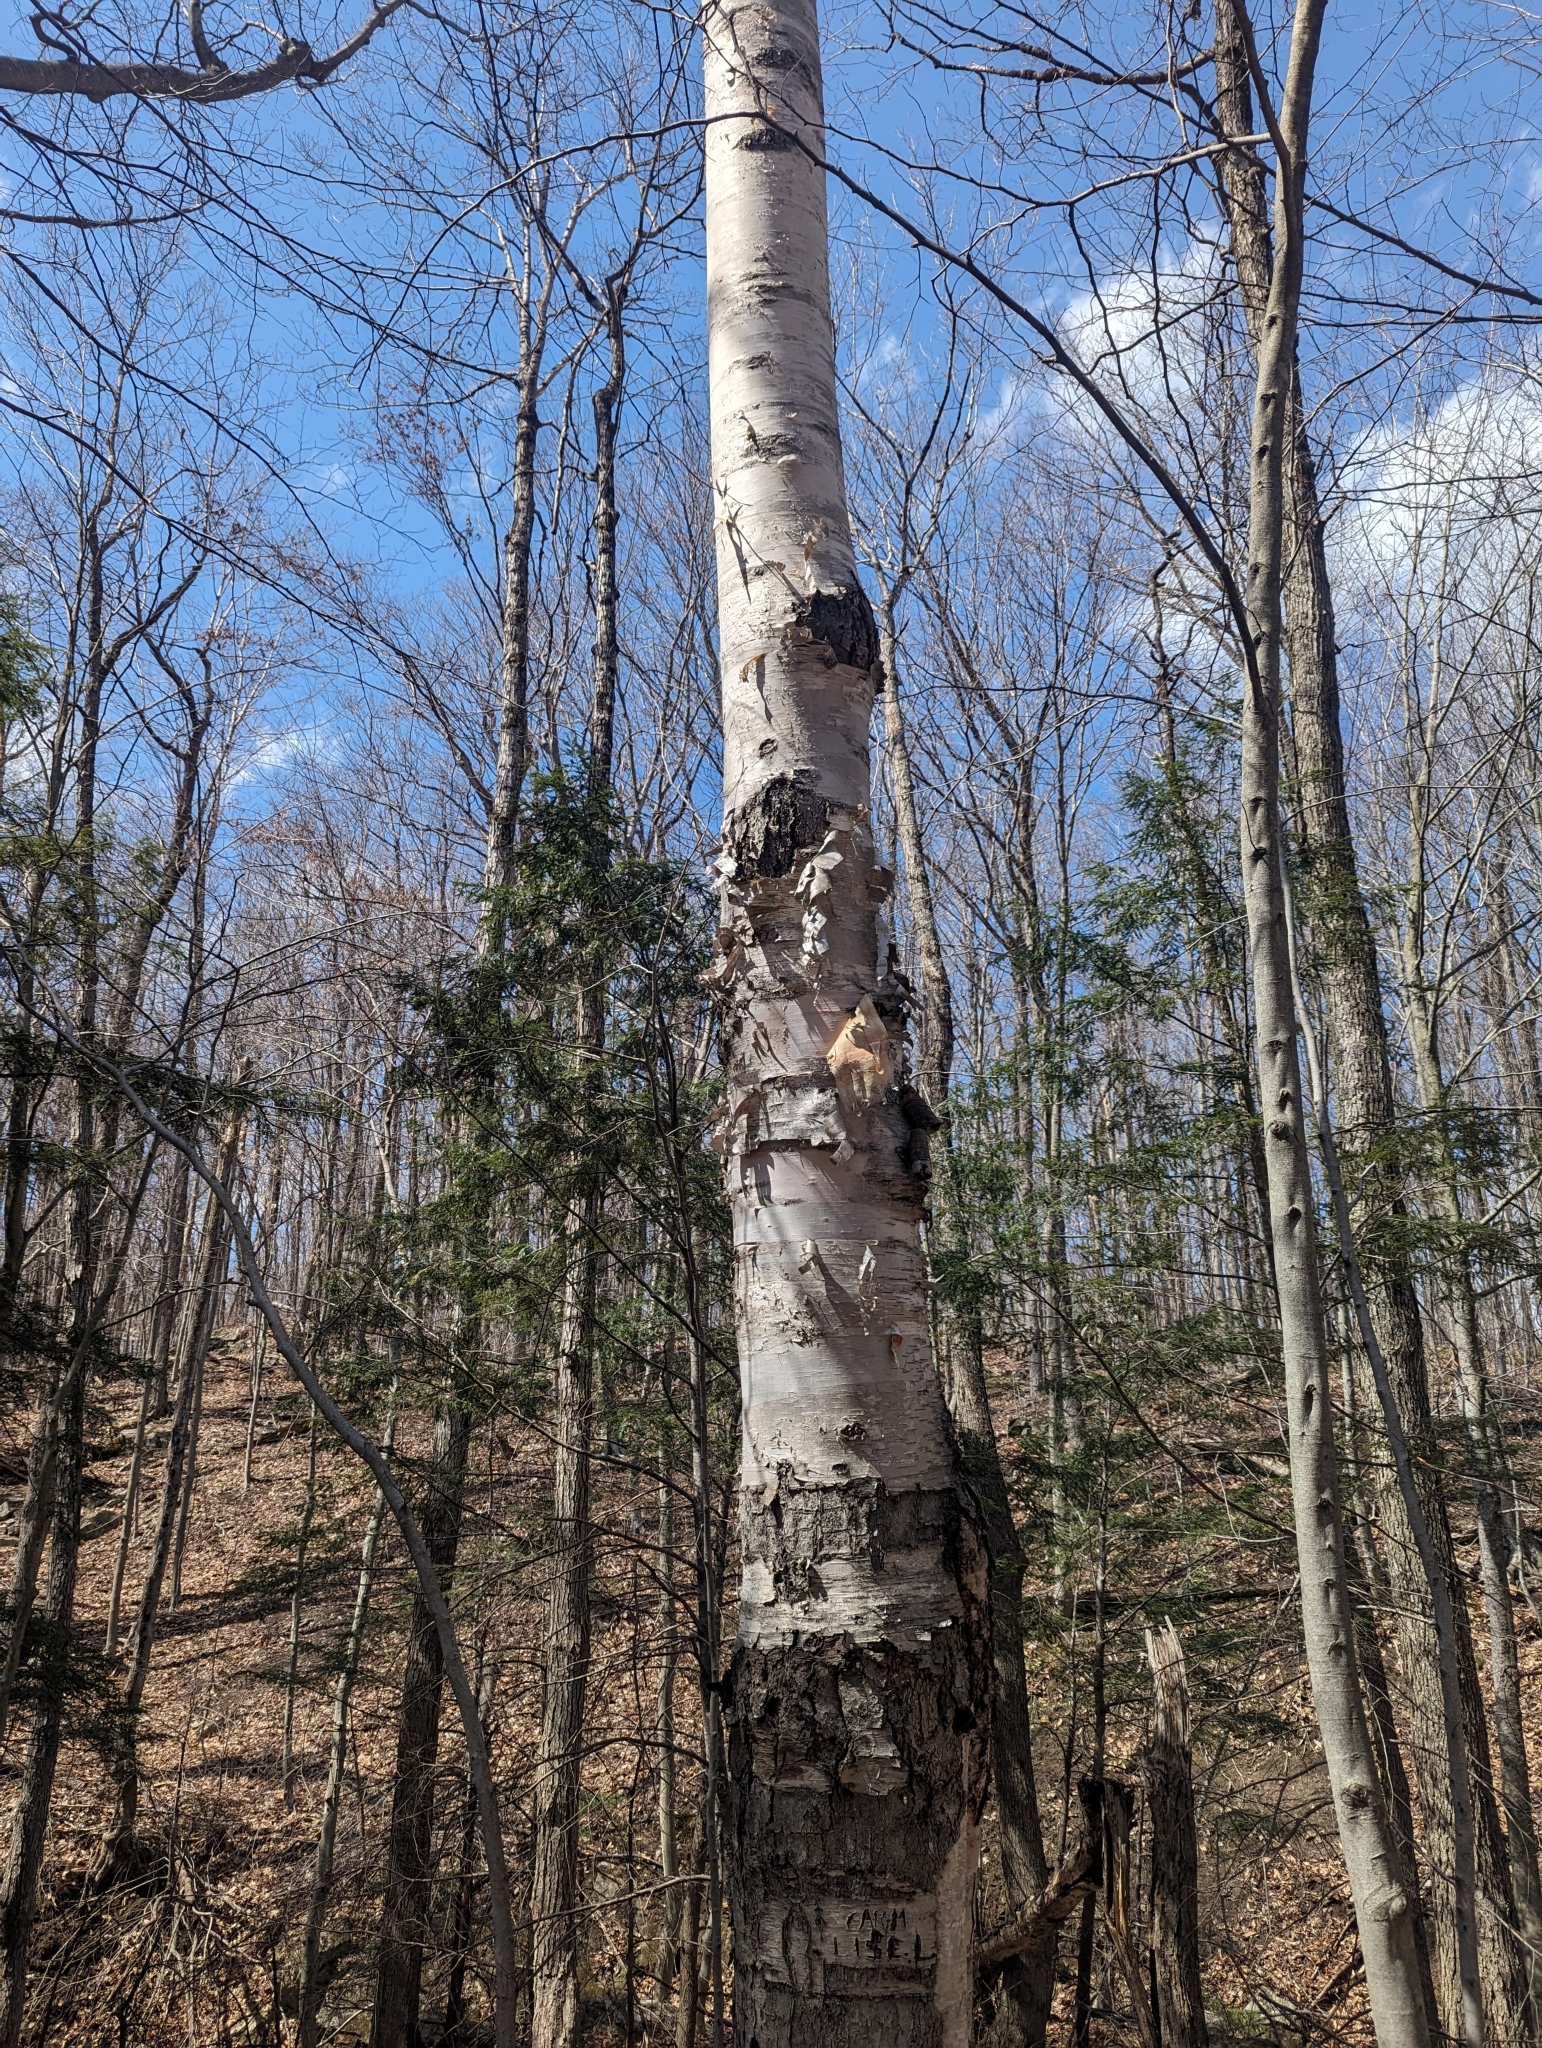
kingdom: Plantae
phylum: Tracheophyta
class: Magnoliopsida
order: Fagales
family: Betulaceae
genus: Betula
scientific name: Betula papyrifera
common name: Paper birch
